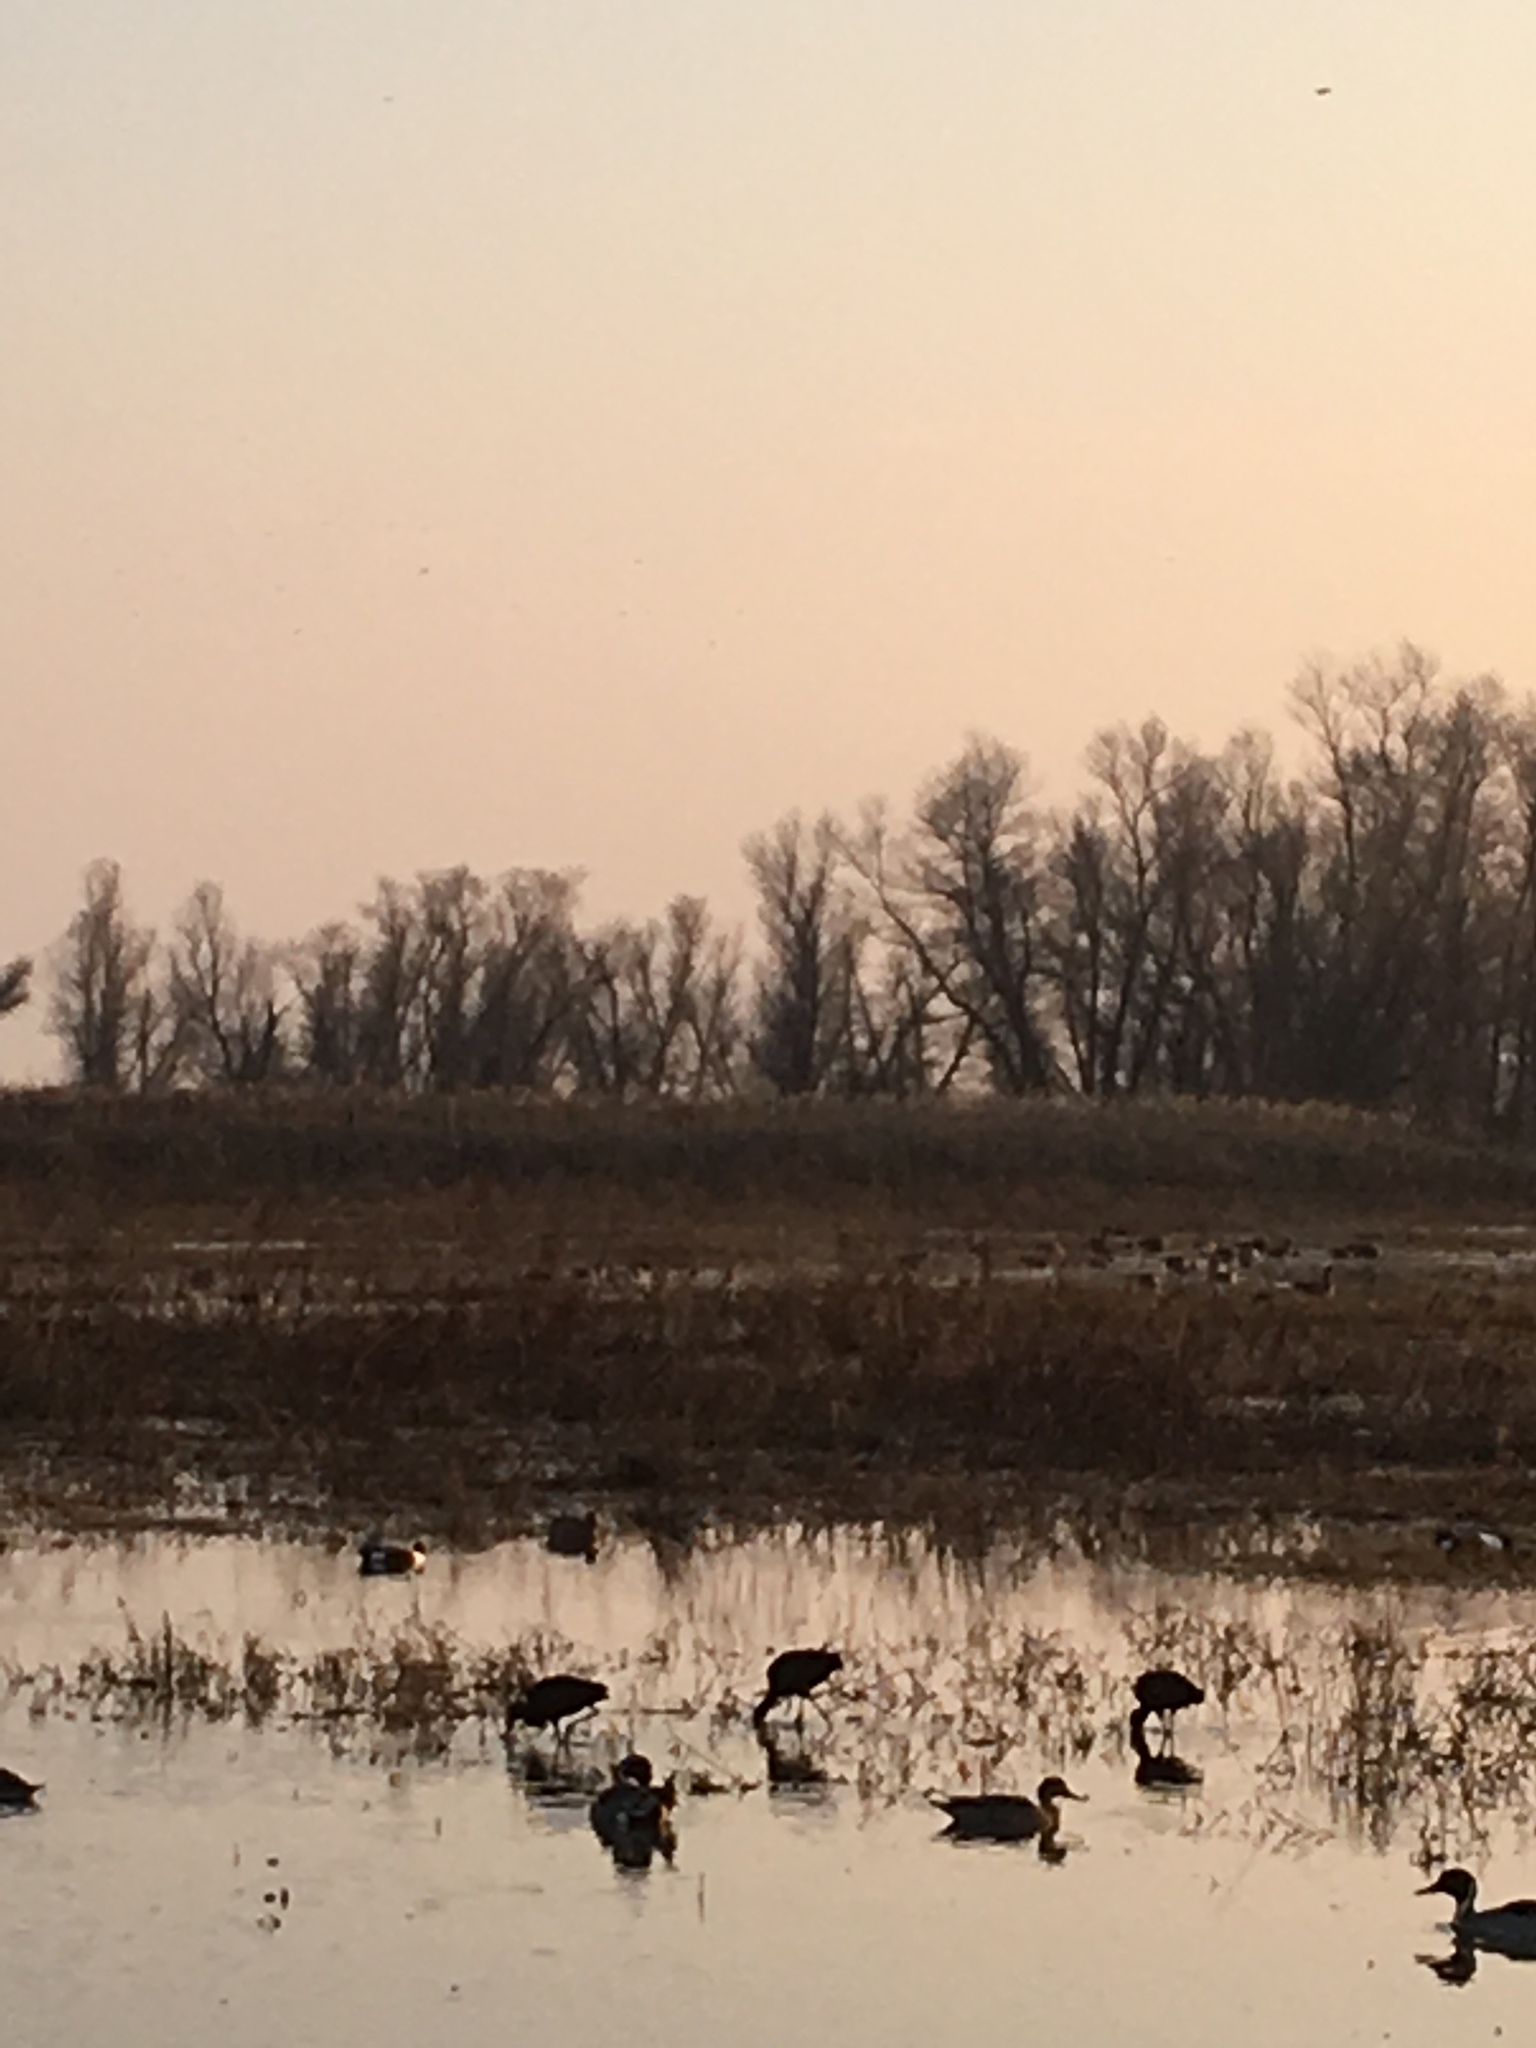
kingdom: Animalia
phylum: Chordata
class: Aves
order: Pelecaniformes
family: Threskiornithidae
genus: Plegadis
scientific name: Plegadis chihi
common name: White-faced ibis
